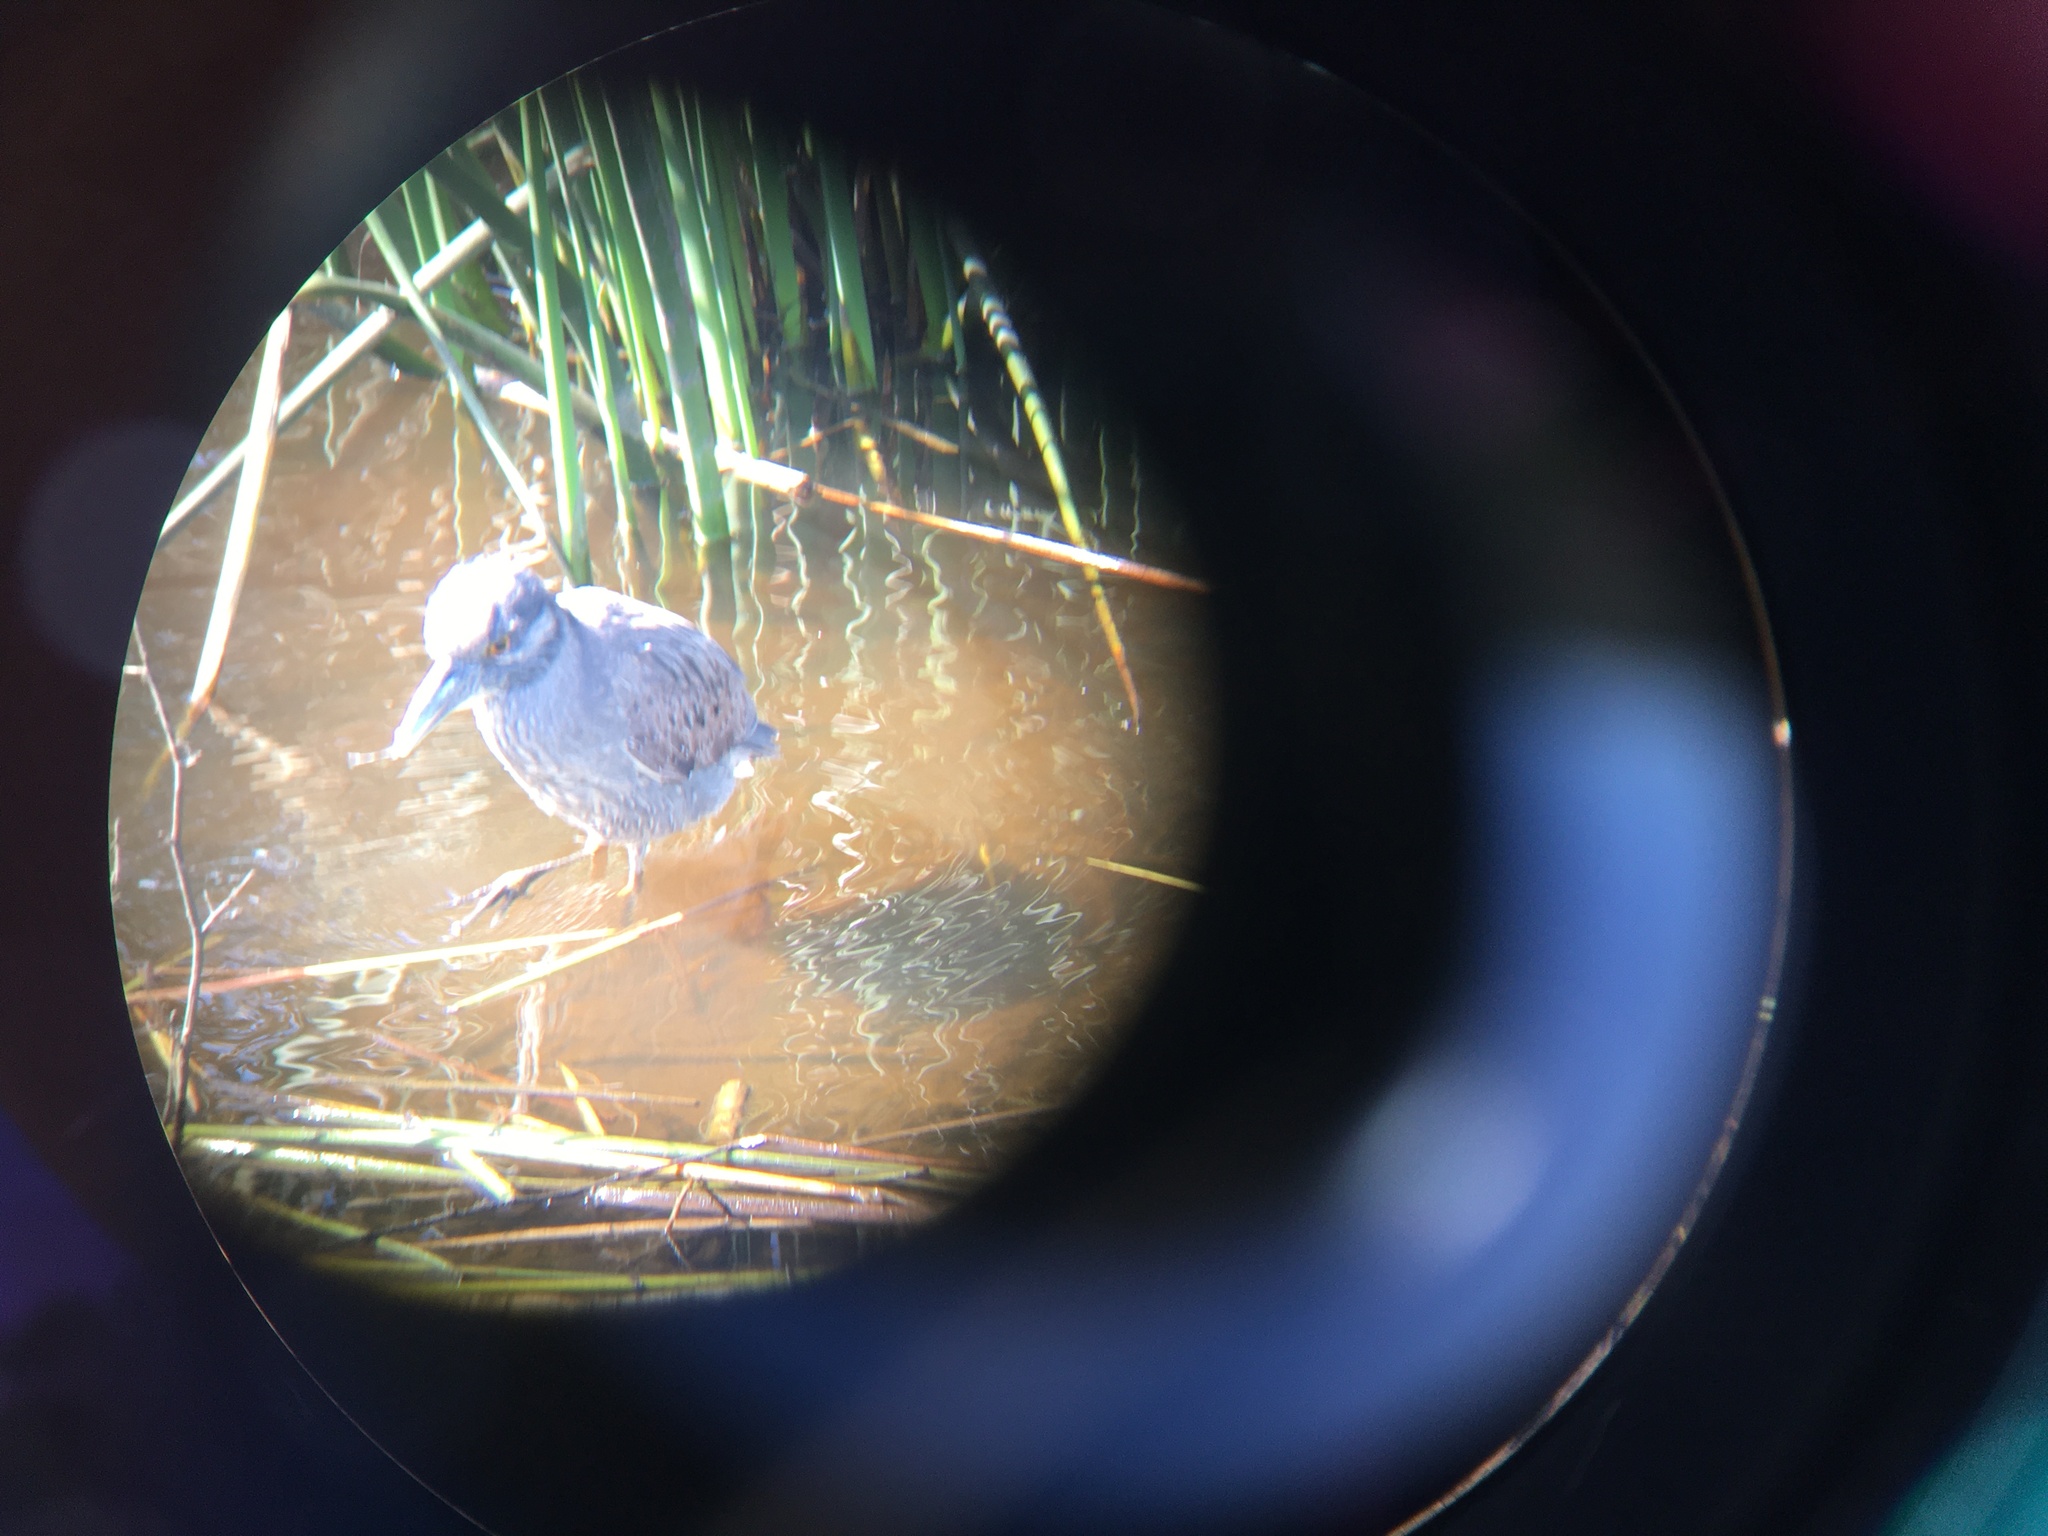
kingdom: Animalia
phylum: Chordata
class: Aves
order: Pelecaniformes
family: Ardeidae
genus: Nyctanassa
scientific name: Nyctanassa violacea
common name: Yellow-crowned night heron
